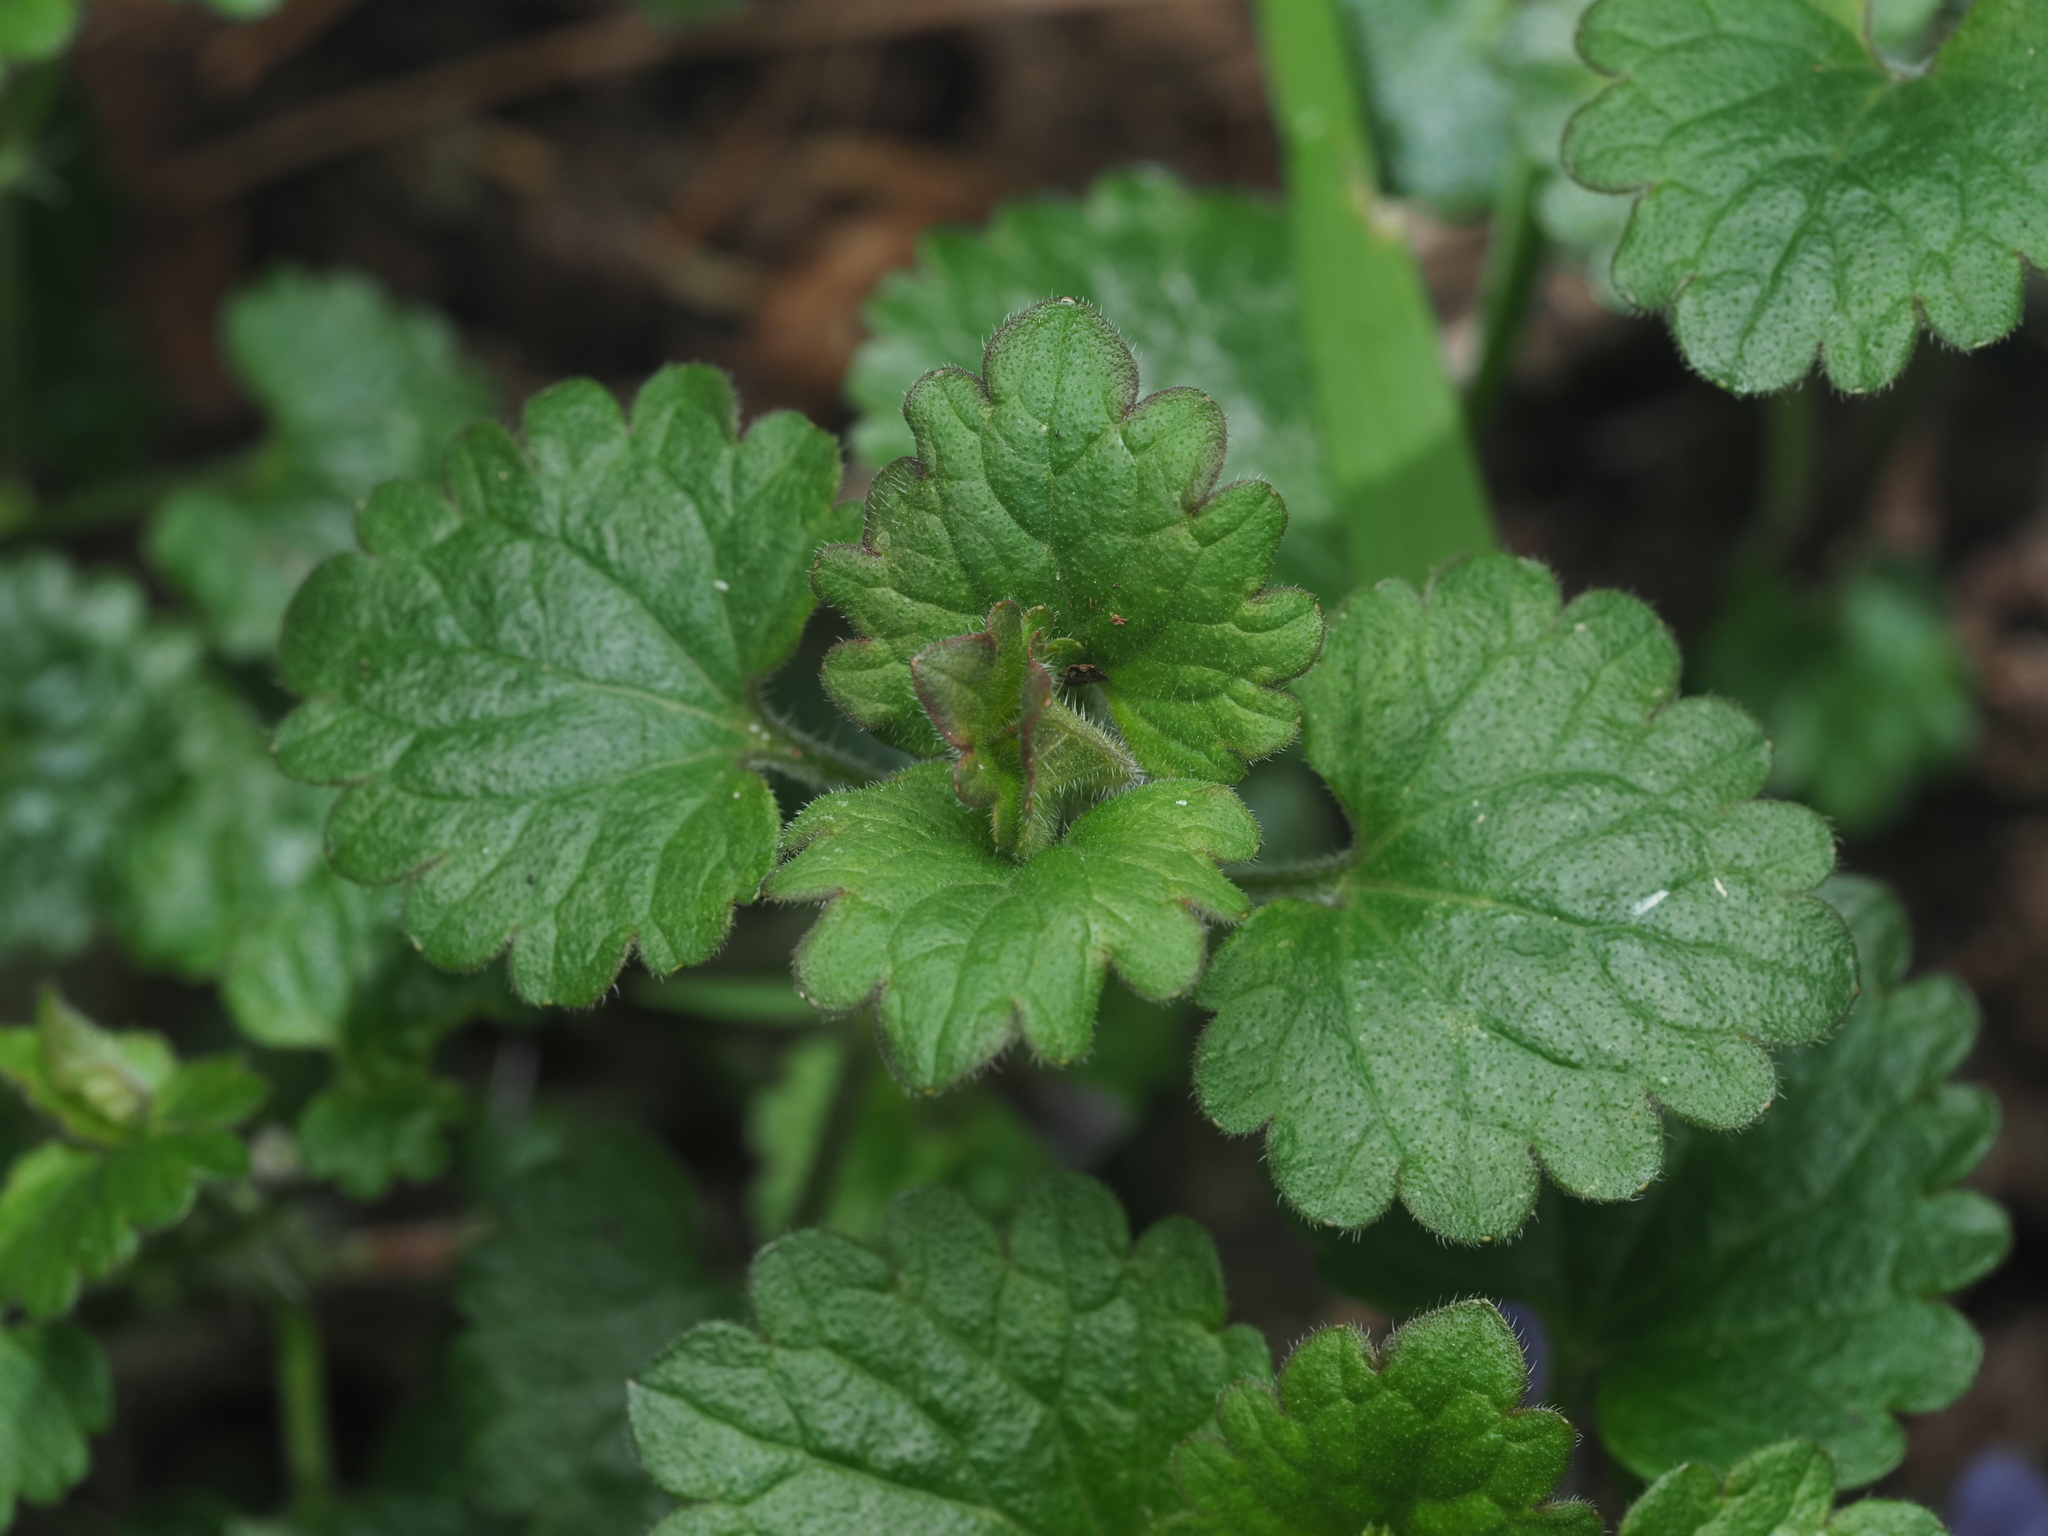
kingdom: Plantae
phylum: Tracheophyta
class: Magnoliopsida
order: Lamiales
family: Lamiaceae
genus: Glechoma
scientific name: Glechoma hederacea
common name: Ground ivy
